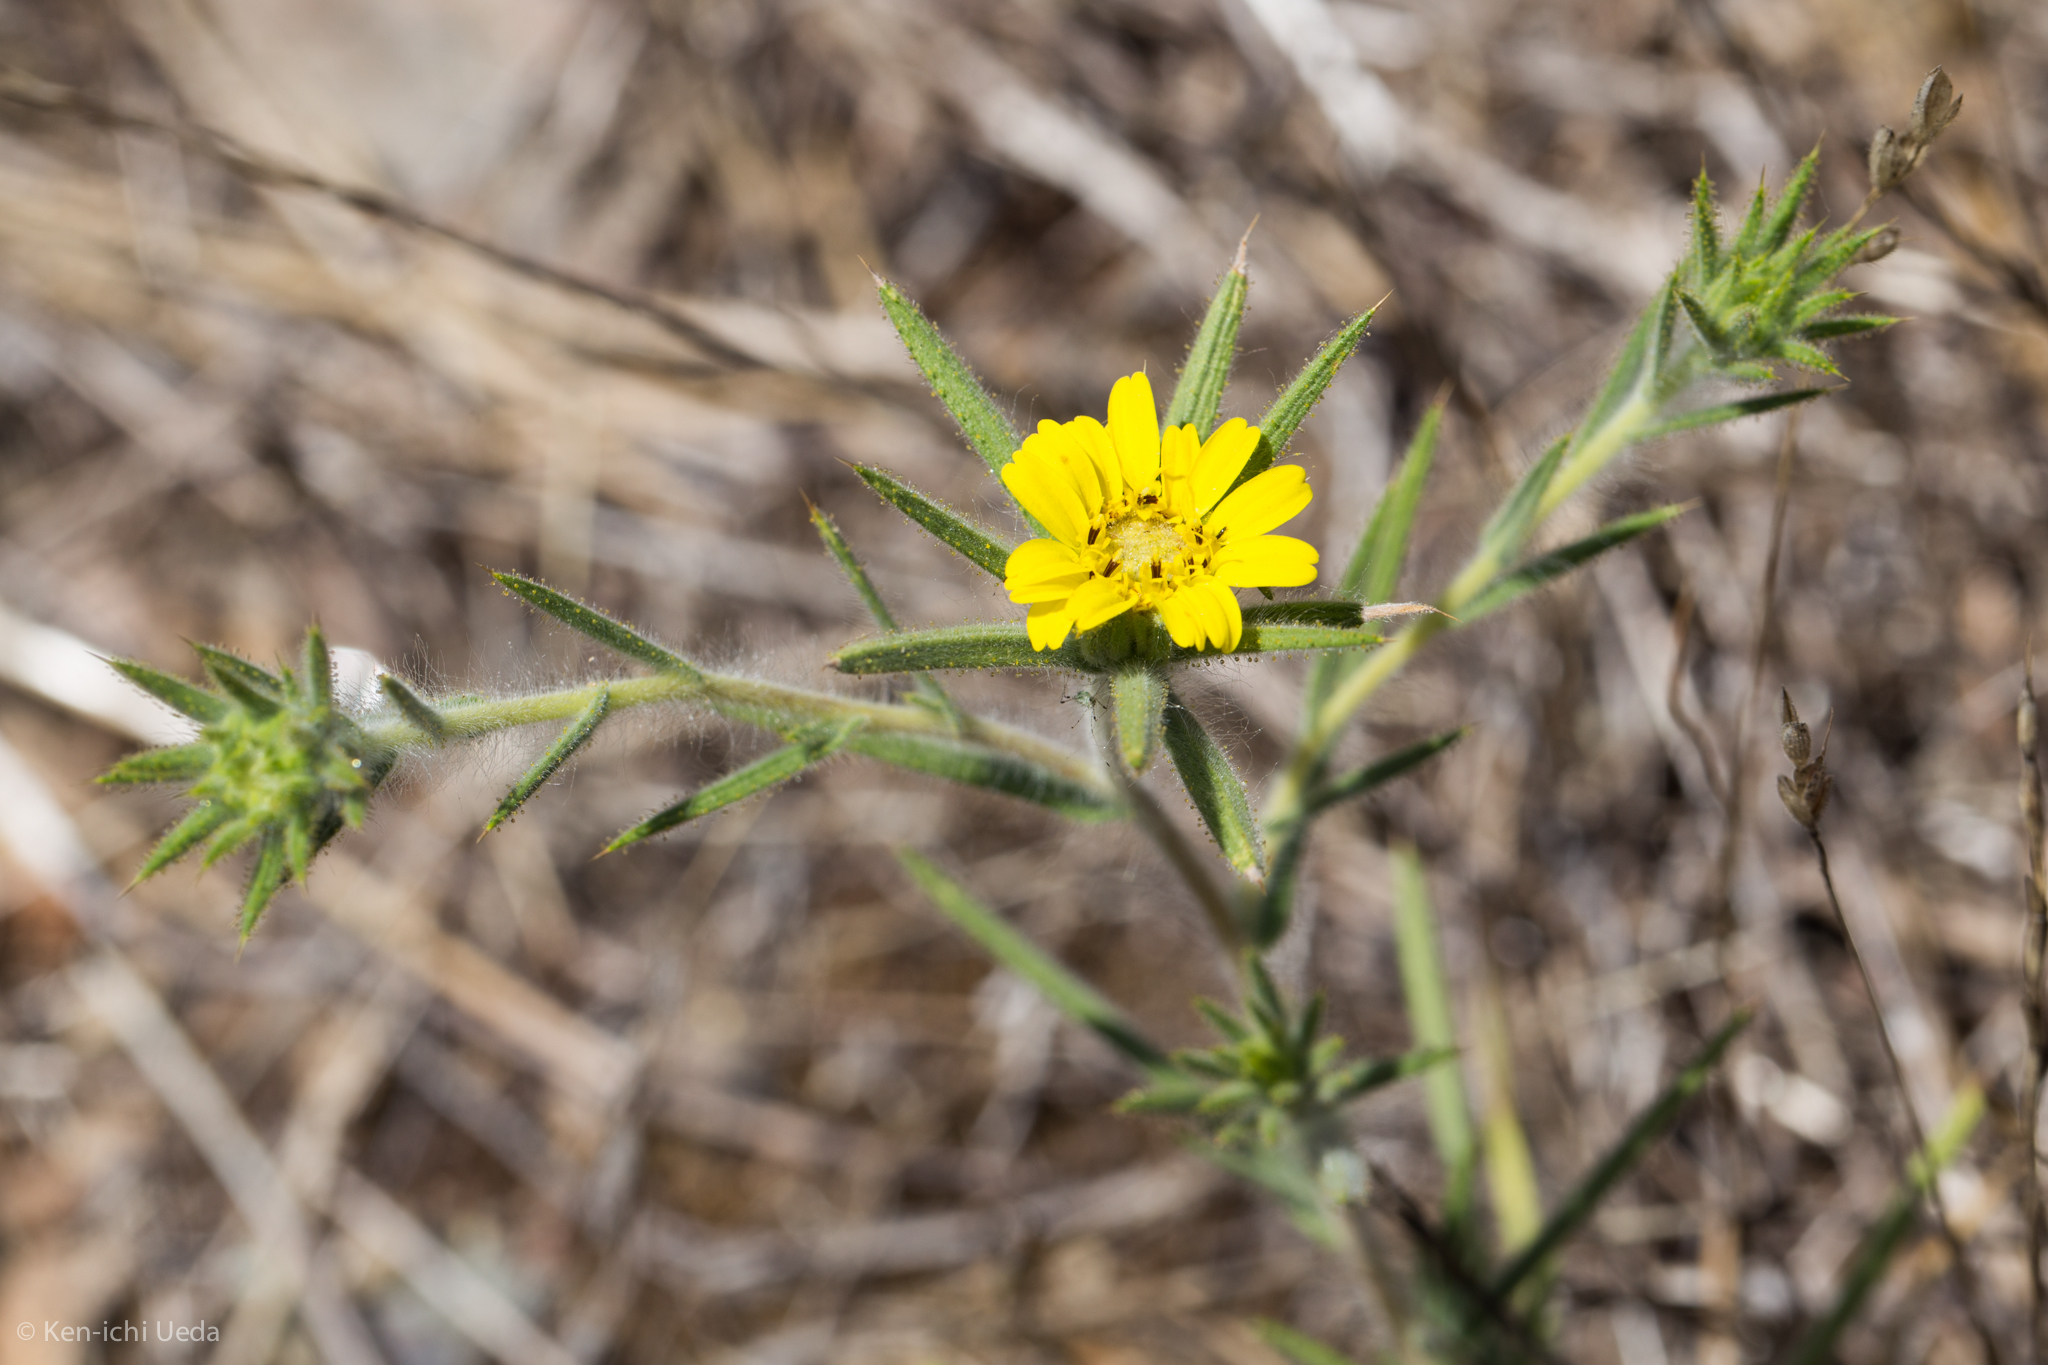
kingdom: Plantae
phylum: Tracheophyta
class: Magnoliopsida
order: Asterales
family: Asteraceae
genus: Centromadia
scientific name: Centromadia fitchii
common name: Fitch's spikeweed
